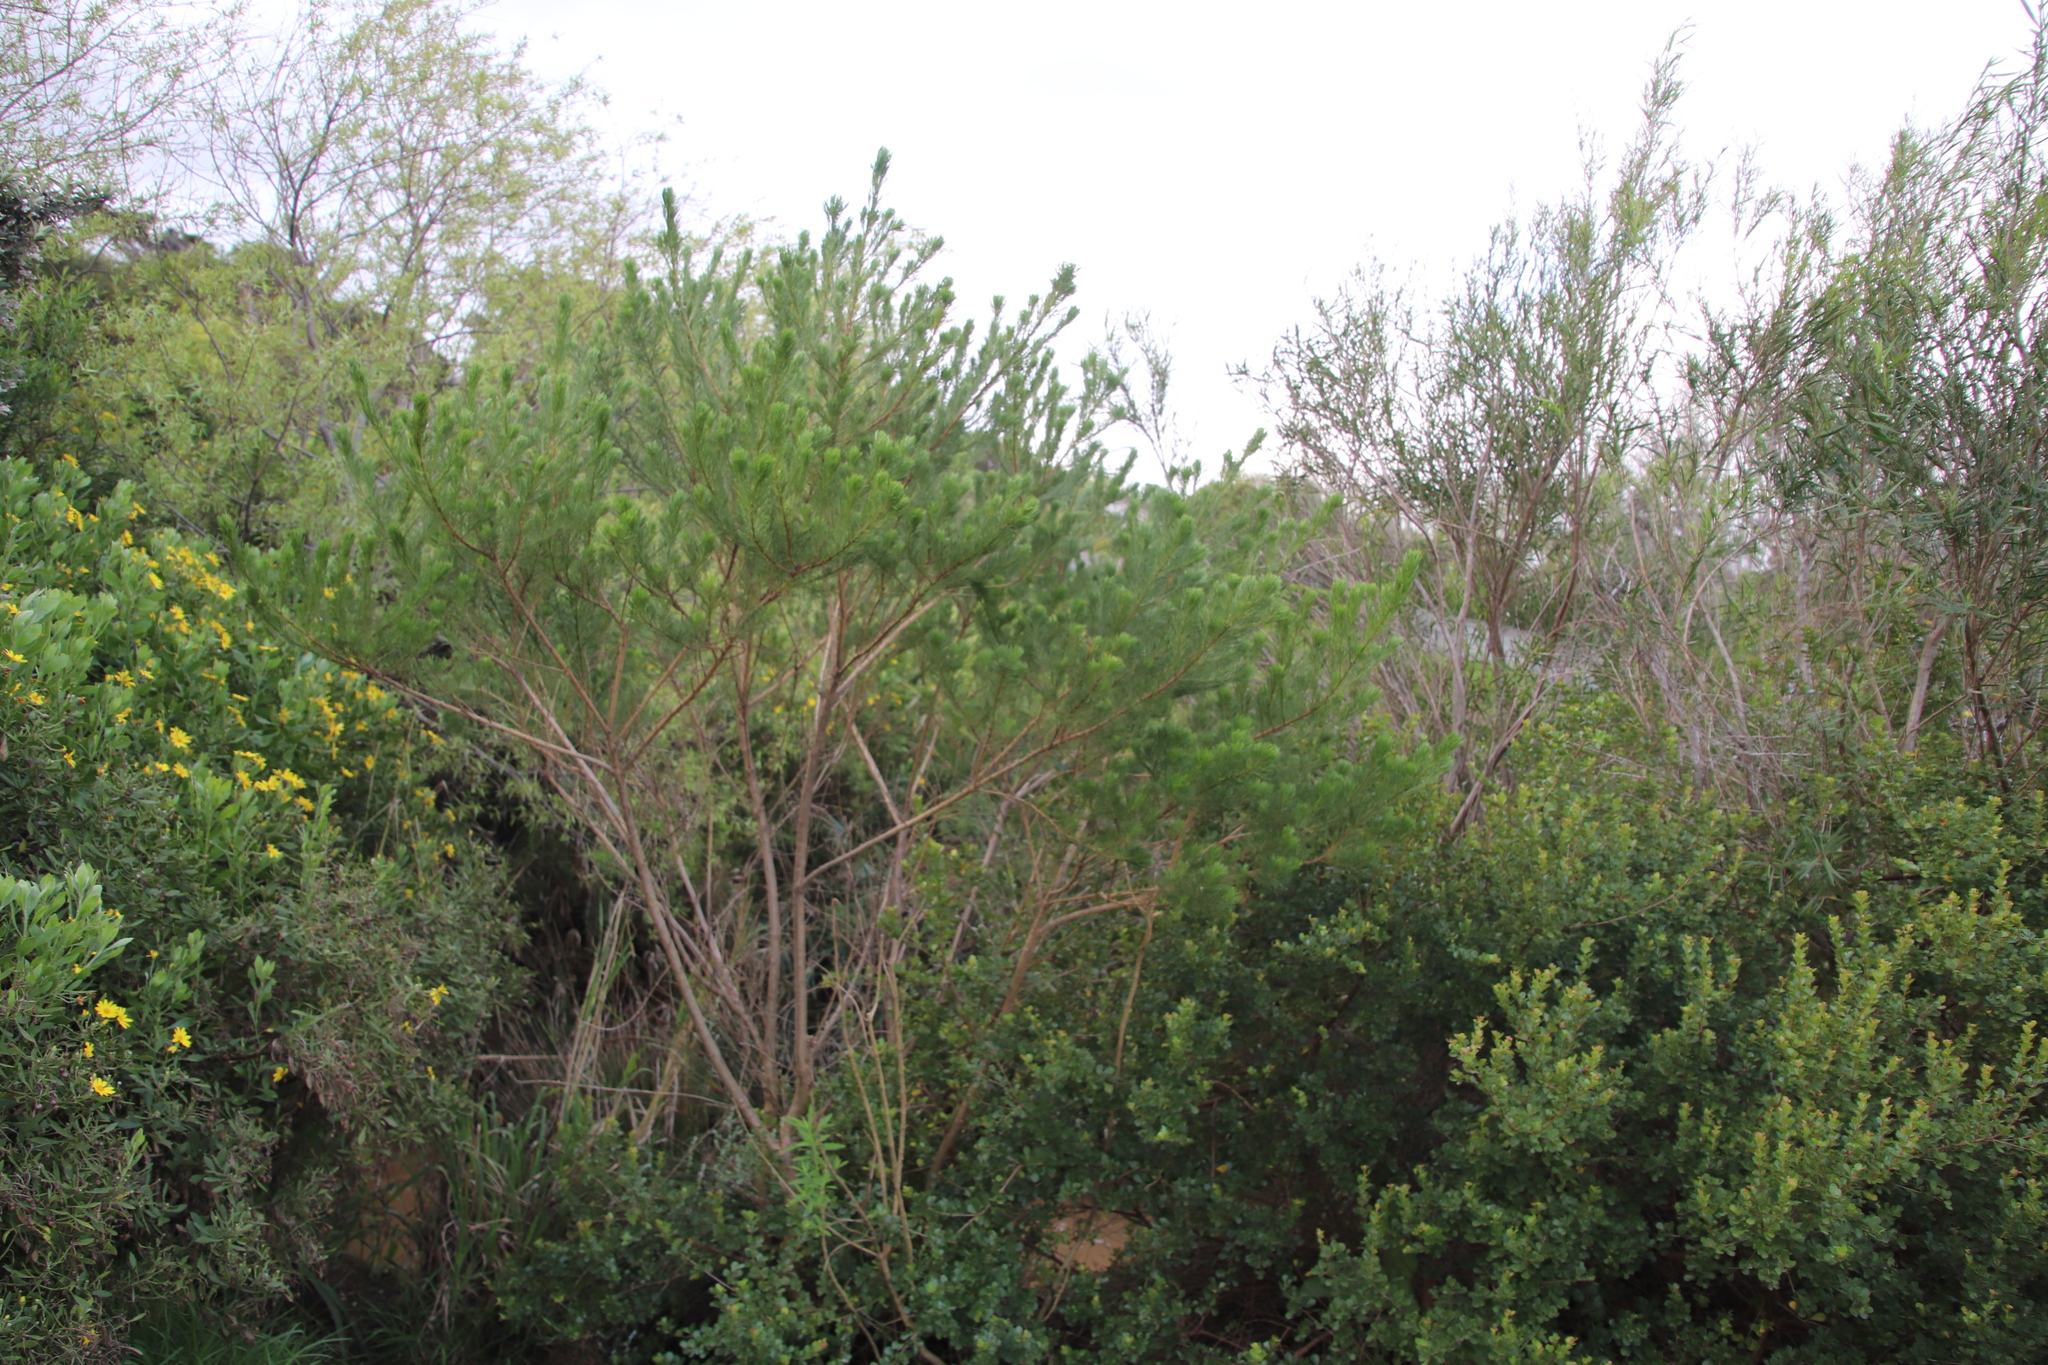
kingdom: Plantae
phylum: Tracheophyta
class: Magnoliopsida
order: Fabales
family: Fabaceae
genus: Psoralea
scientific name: Psoralea pinnata
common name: African scurfpea
